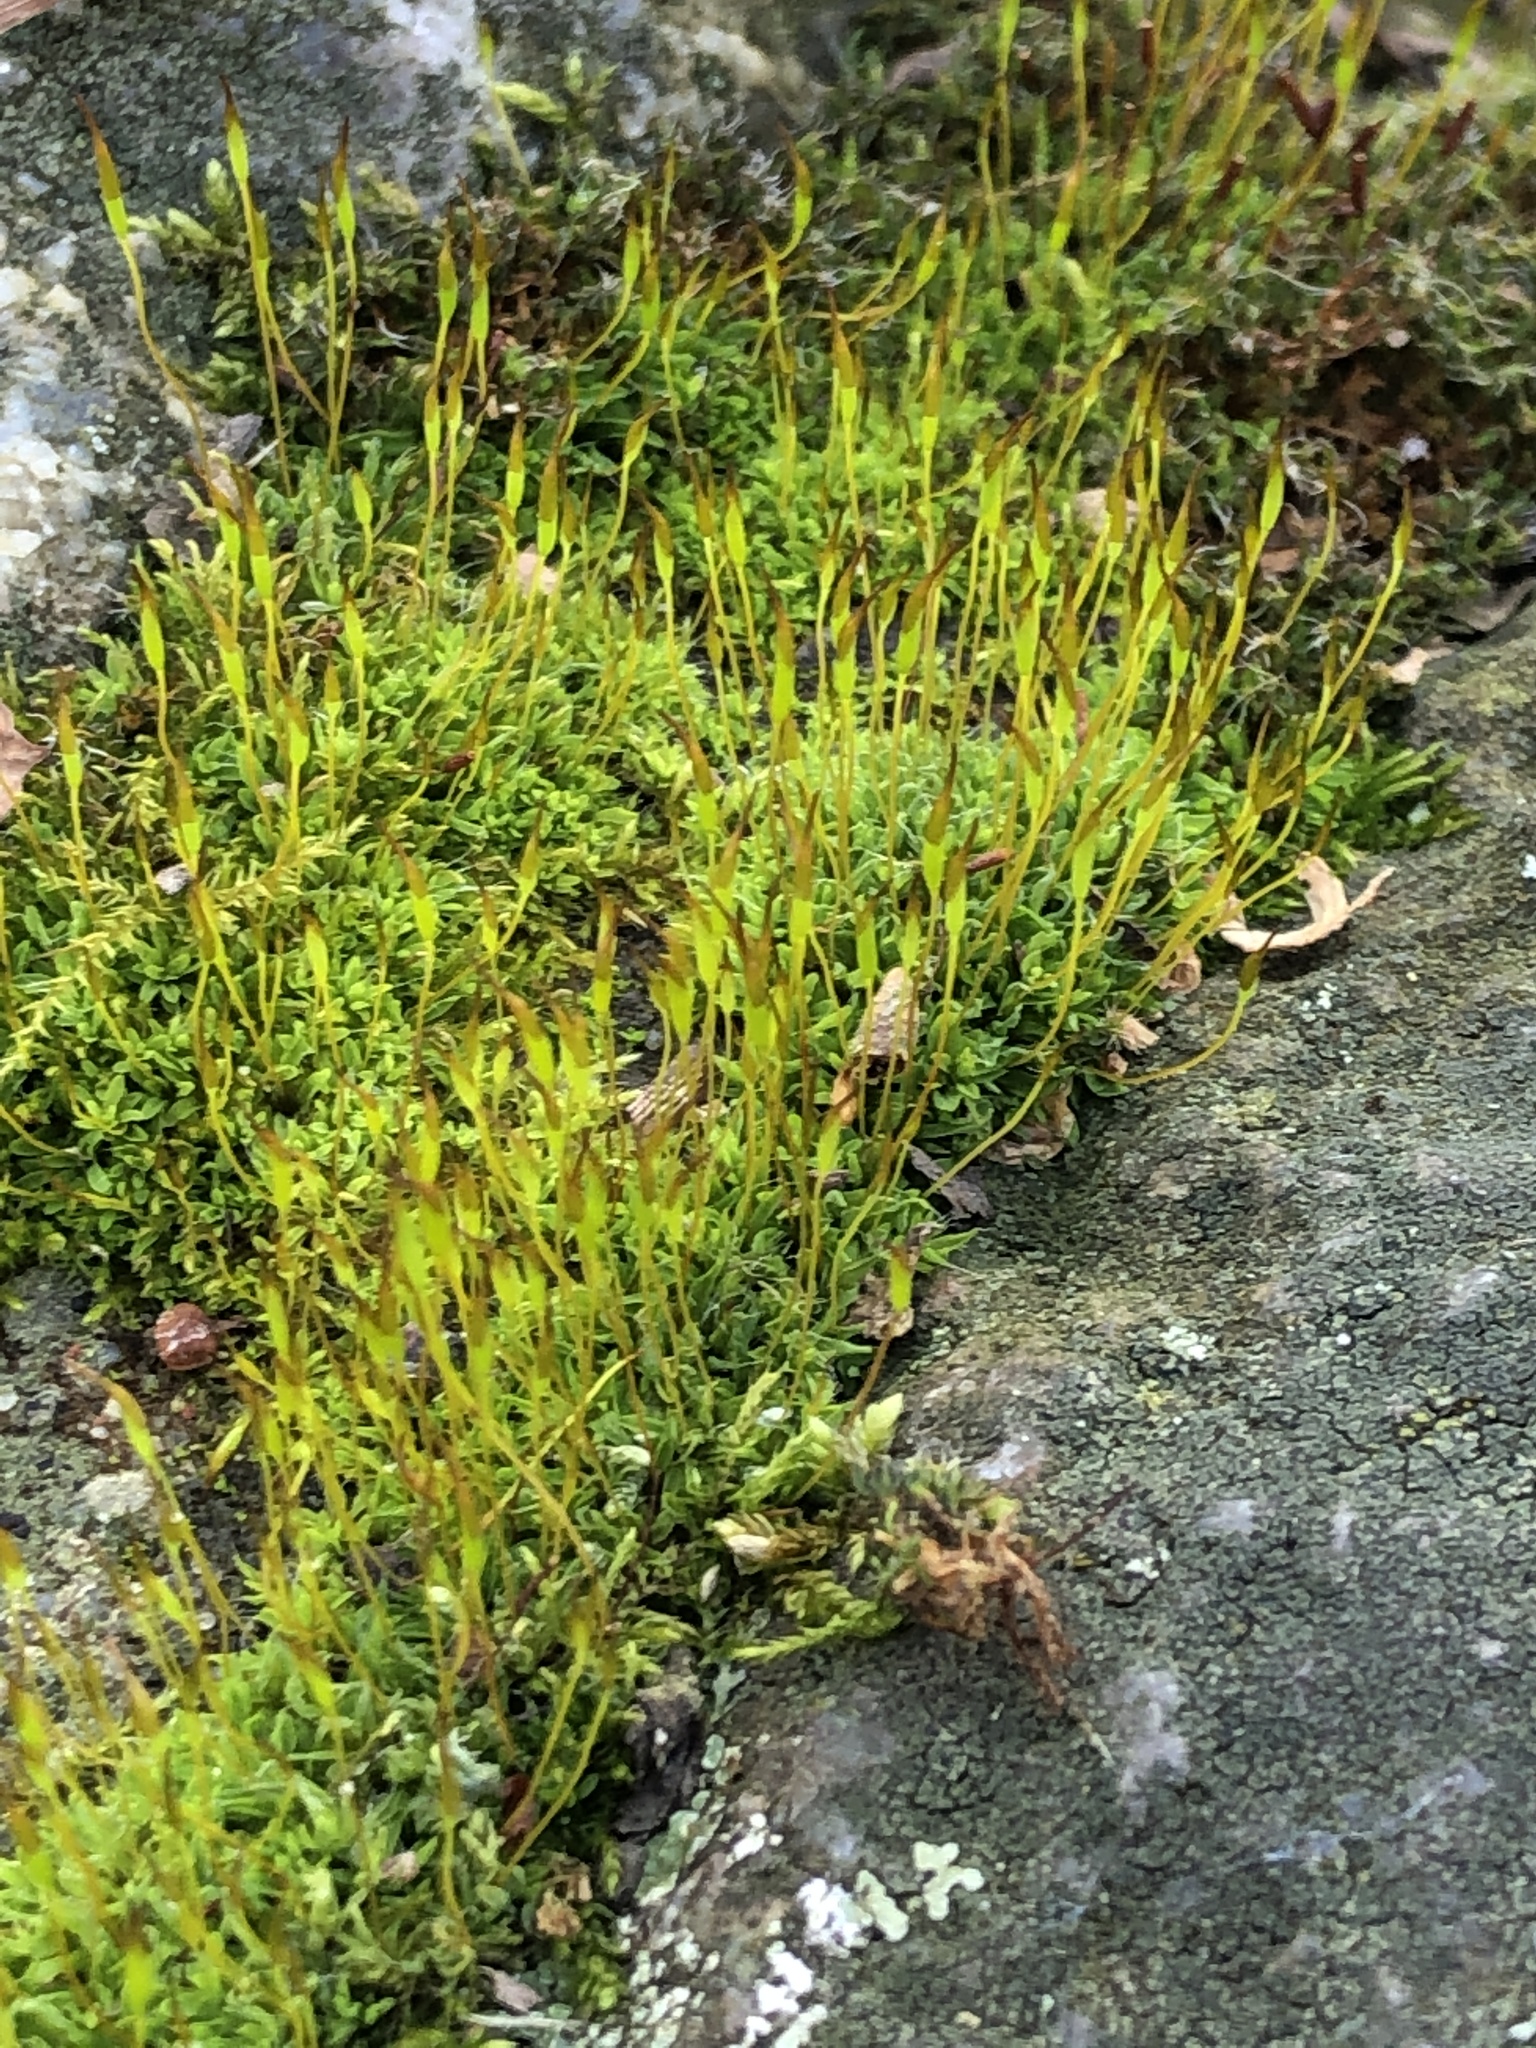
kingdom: Plantae
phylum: Bryophyta
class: Bryopsida
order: Pottiales
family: Pottiaceae
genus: Tortula
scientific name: Tortula muralis
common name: Wall screw-moss
